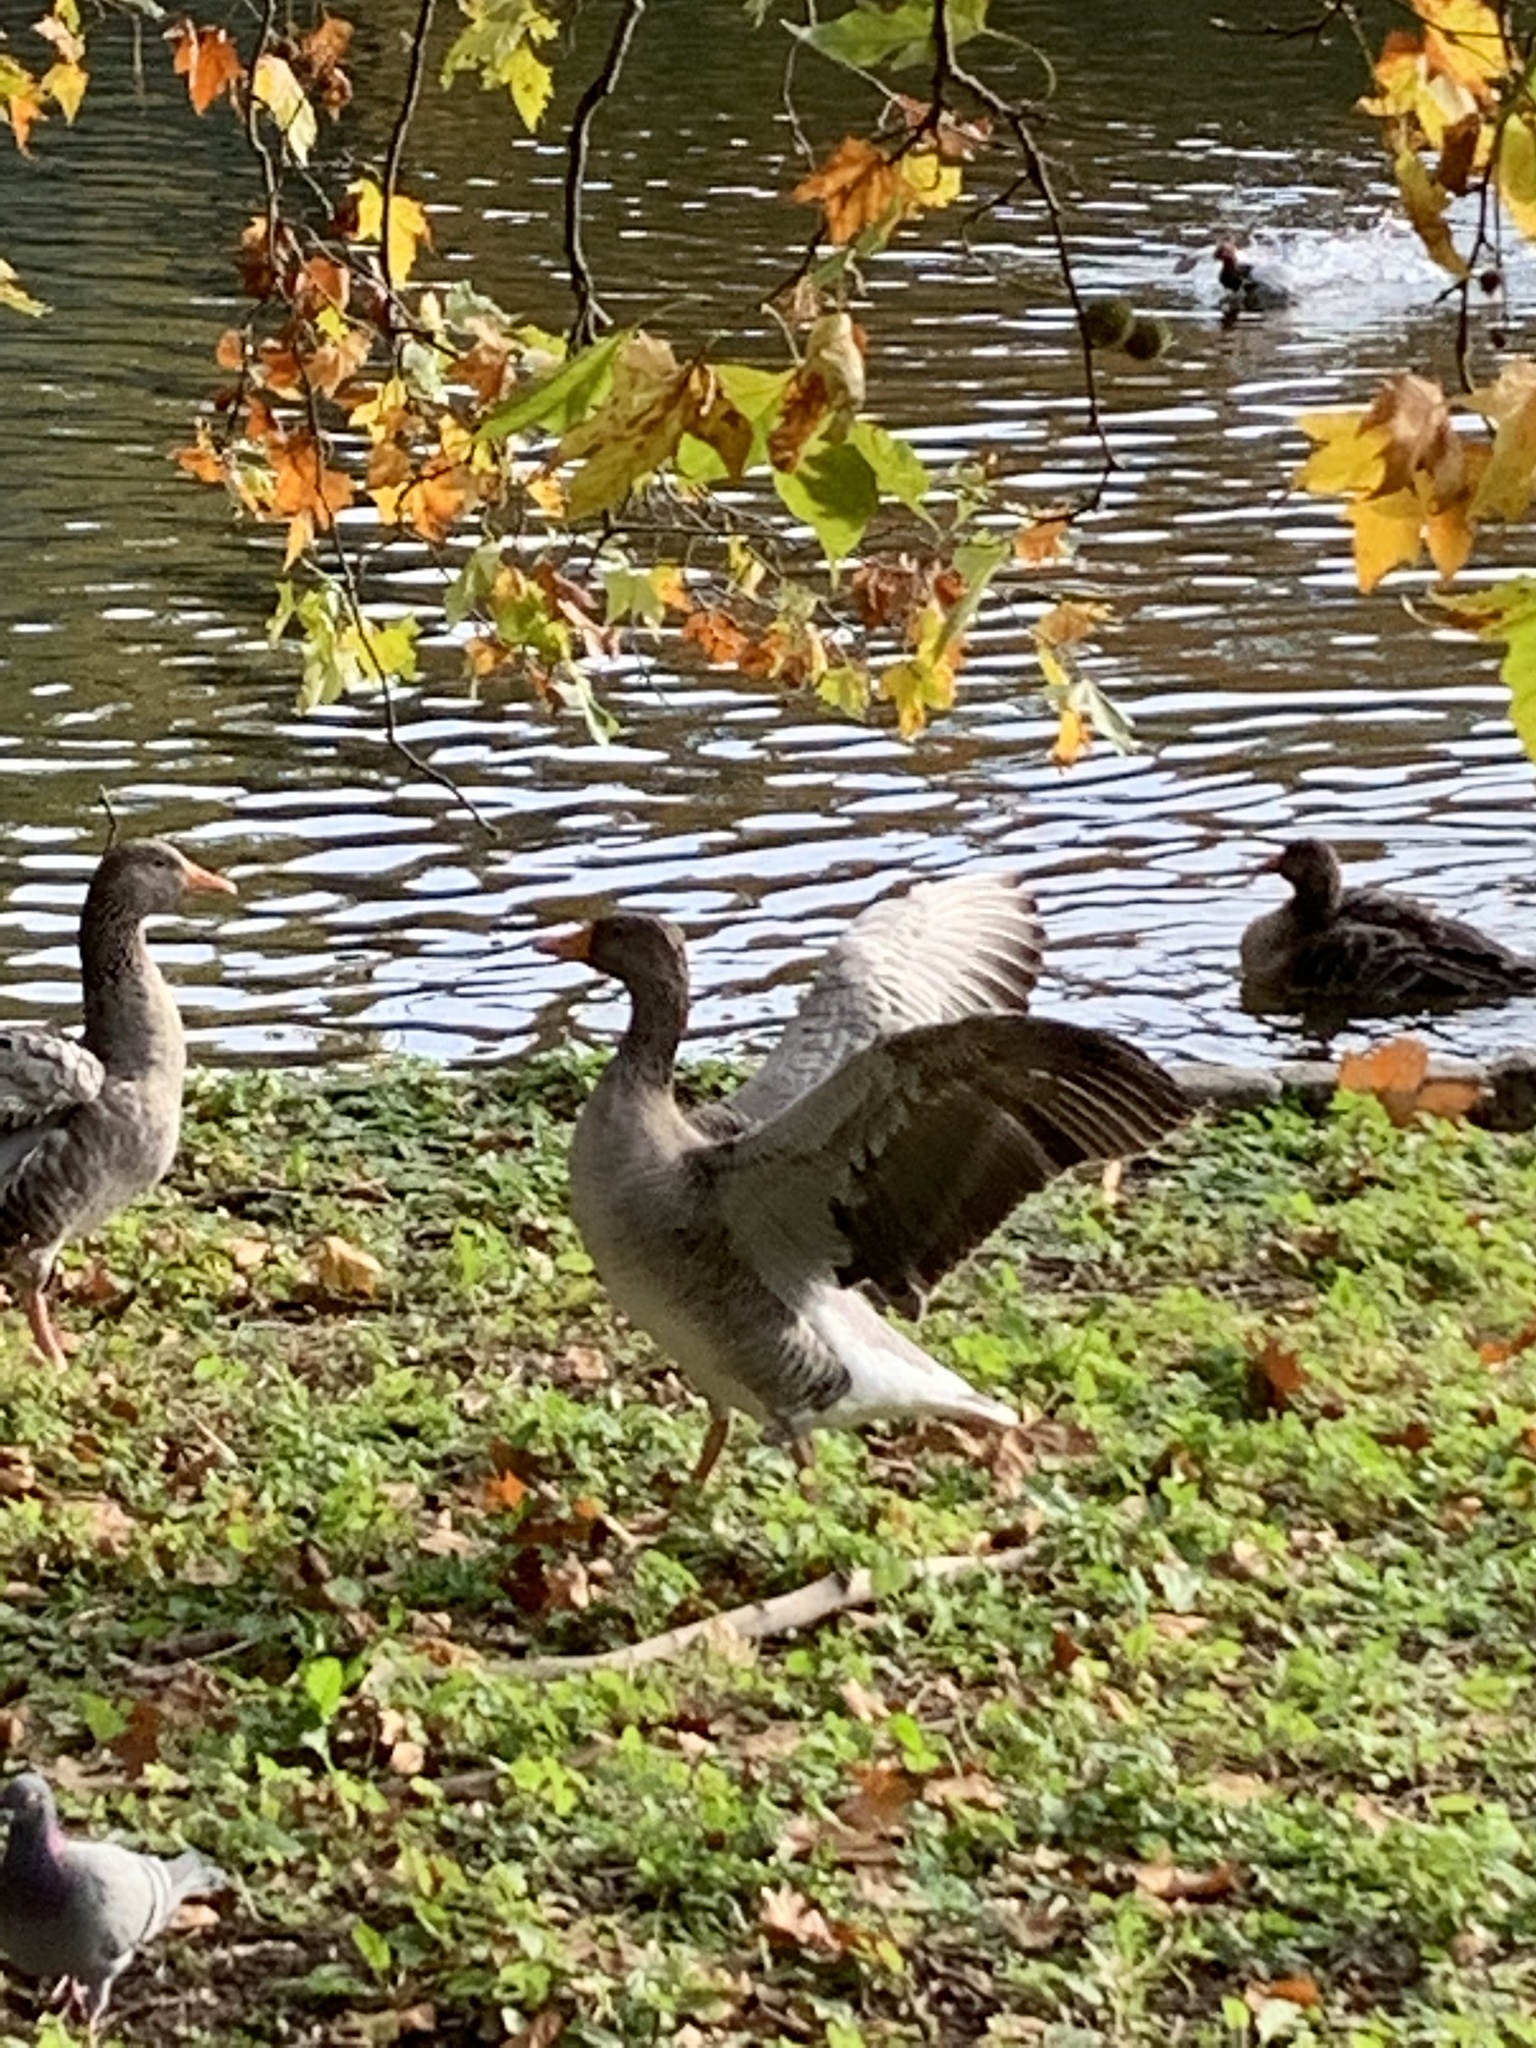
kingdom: Animalia
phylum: Chordata
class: Aves
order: Anseriformes
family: Anatidae
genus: Anser
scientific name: Anser anser
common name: Greylag goose
